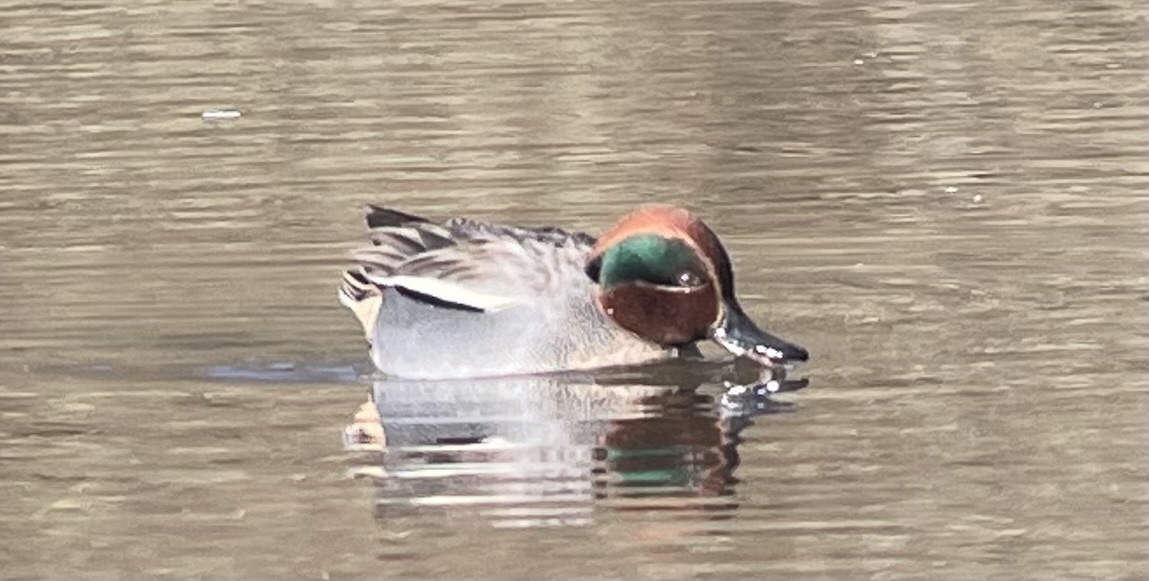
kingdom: Animalia
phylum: Chordata
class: Aves
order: Anseriformes
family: Anatidae
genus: Anas
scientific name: Anas crecca
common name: Eurasian teal
